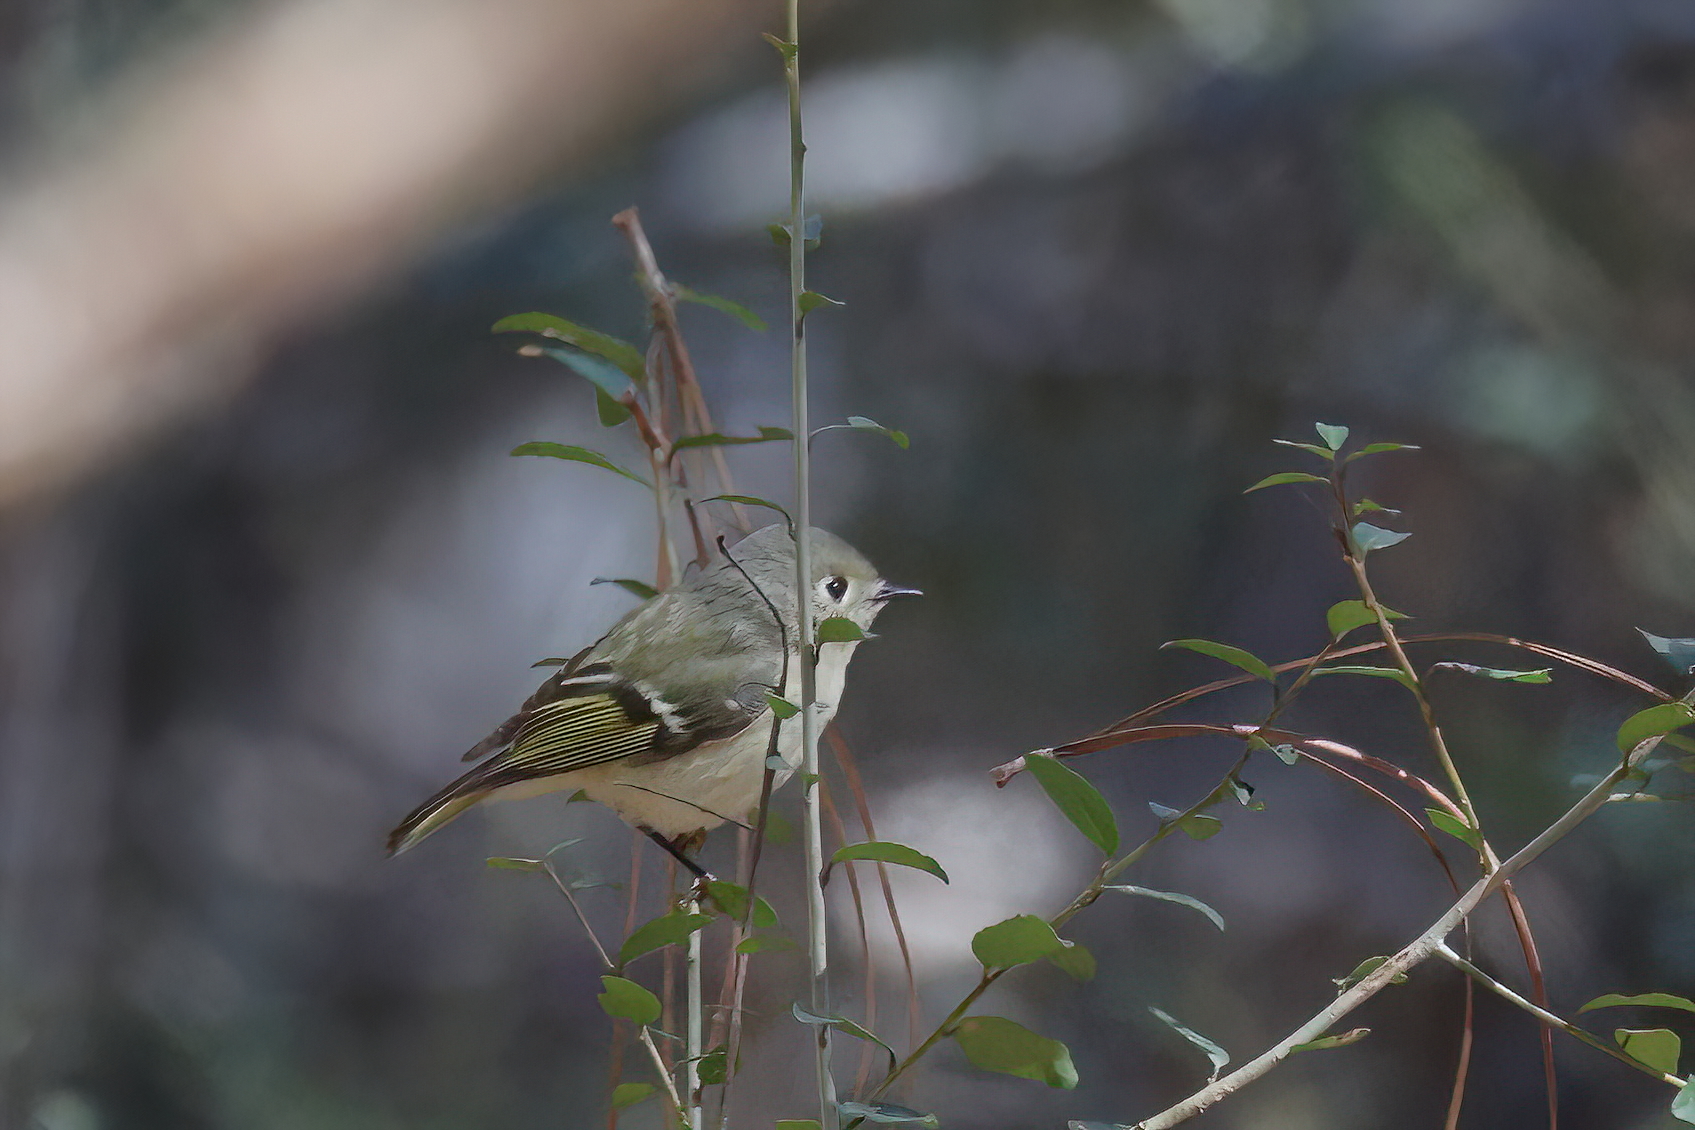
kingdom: Animalia
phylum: Chordata
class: Aves
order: Passeriformes
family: Regulidae
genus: Regulus
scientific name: Regulus calendula
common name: Ruby-crowned kinglet
